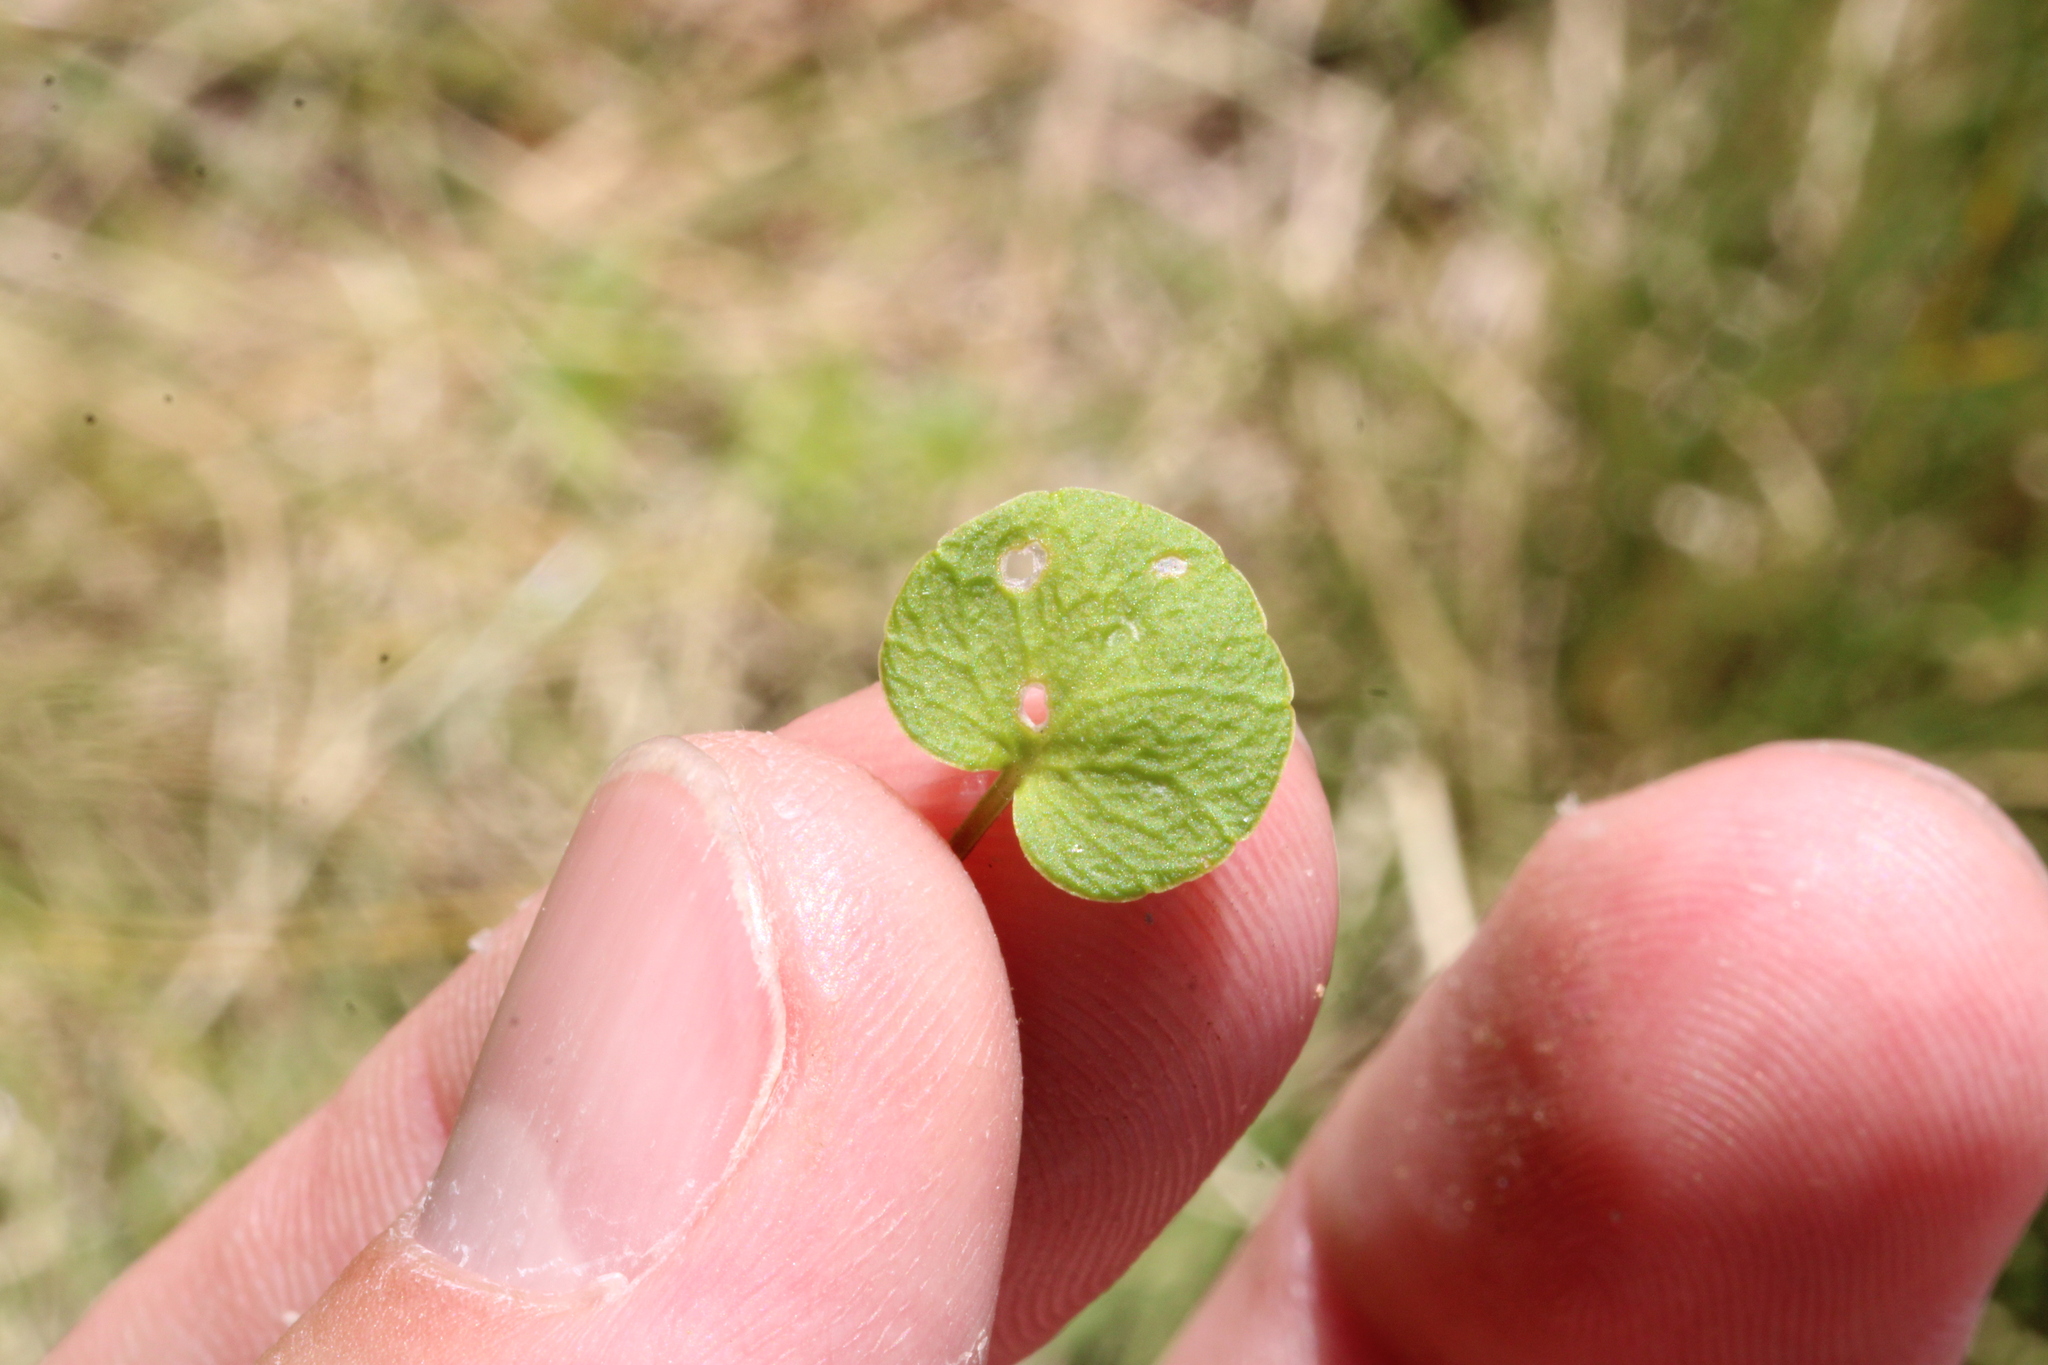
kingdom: Plantae
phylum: Tracheophyta
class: Magnoliopsida
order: Ericales
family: Primulaceae
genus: Soldanella
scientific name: Soldanella pusilla
